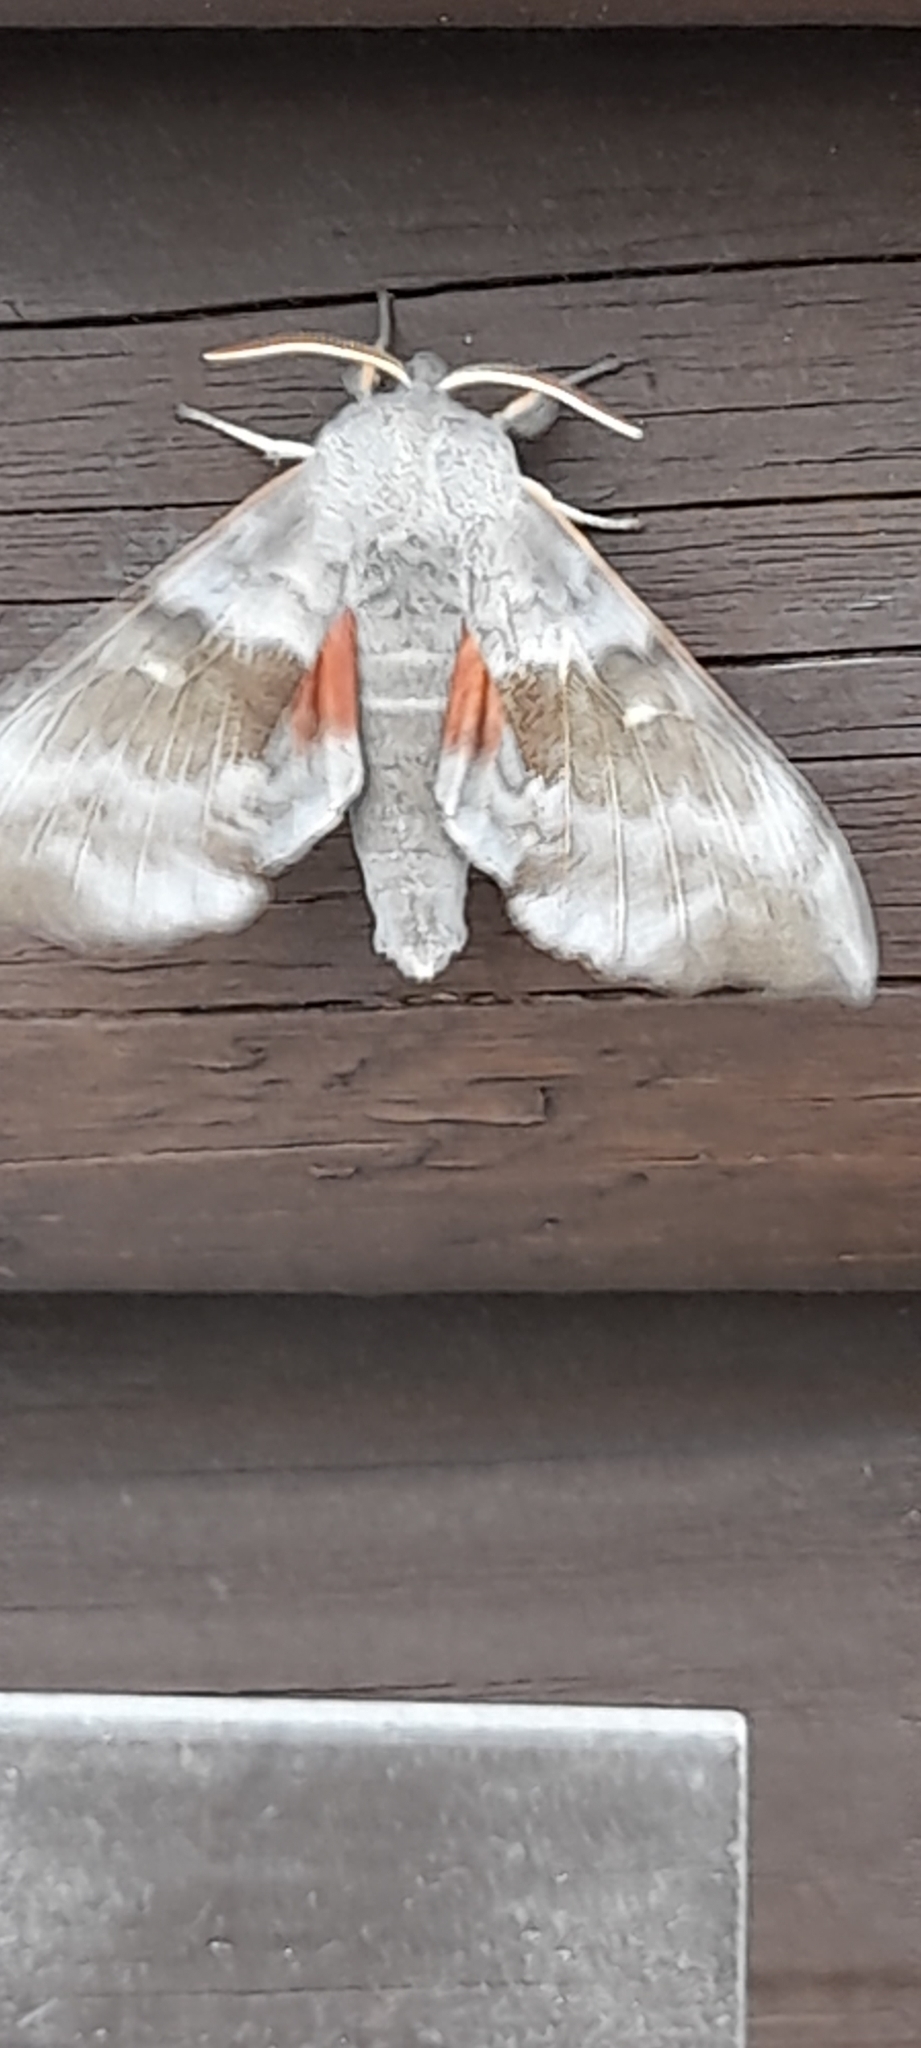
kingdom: Animalia
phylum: Arthropoda
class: Insecta
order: Lepidoptera
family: Sphingidae
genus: Laothoe
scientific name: Laothoe populi
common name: Poplar hawk-moth
